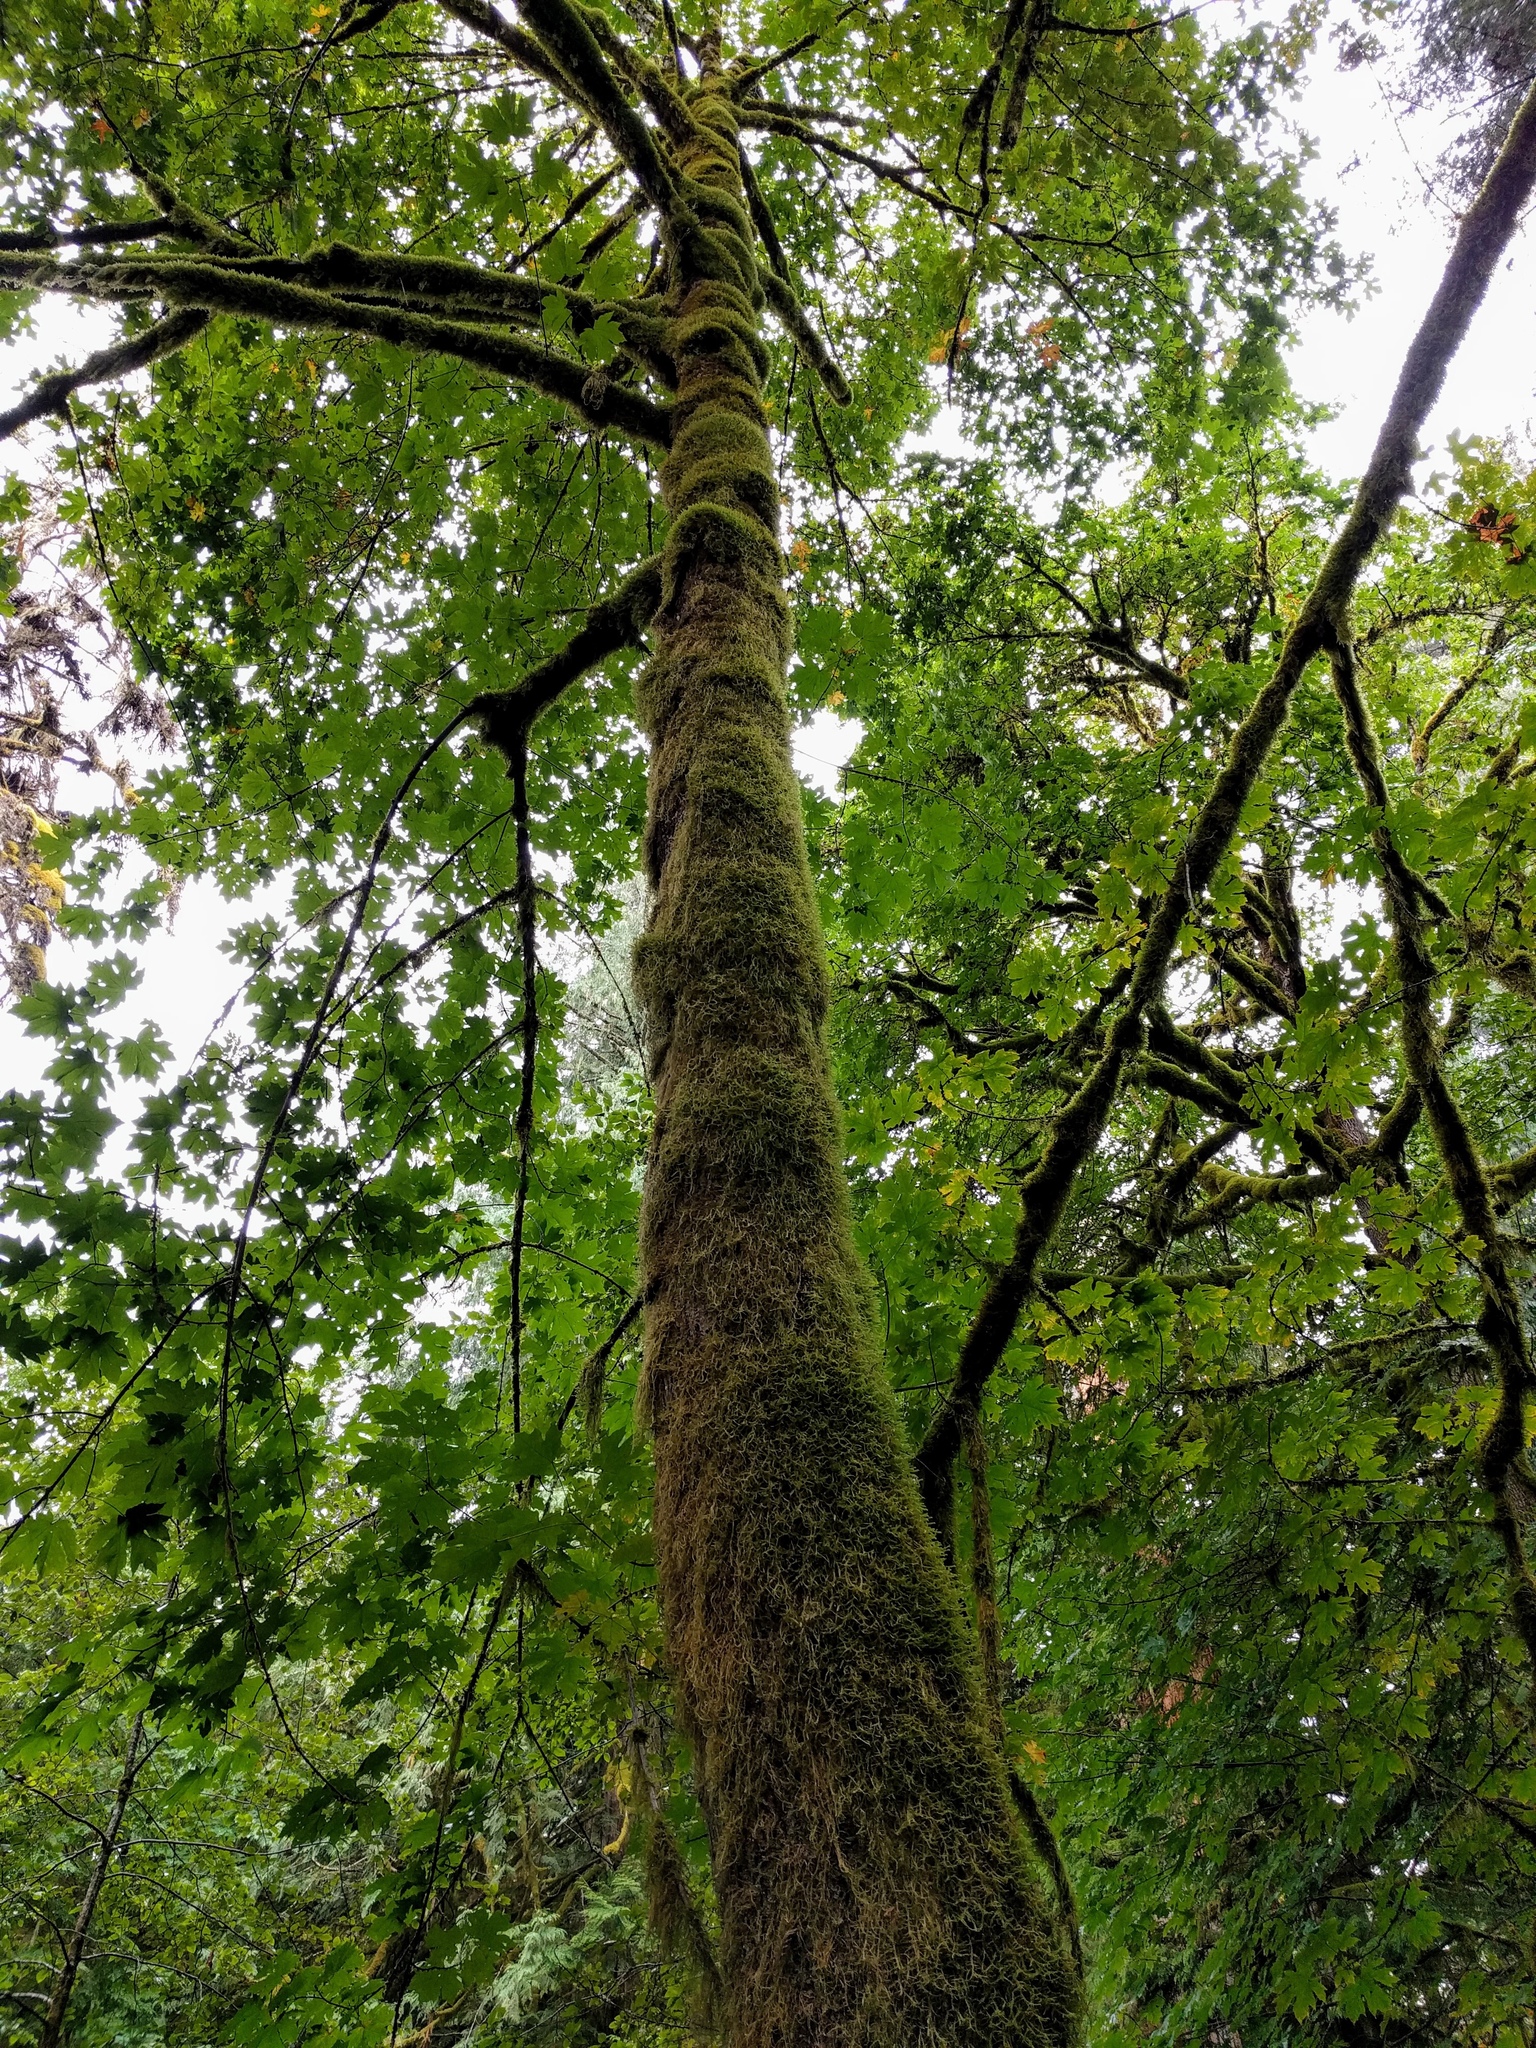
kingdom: Plantae
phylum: Tracheophyta
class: Magnoliopsida
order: Sapindales
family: Sapindaceae
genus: Acer
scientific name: Acer macrophyllum
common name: Oregon maple
